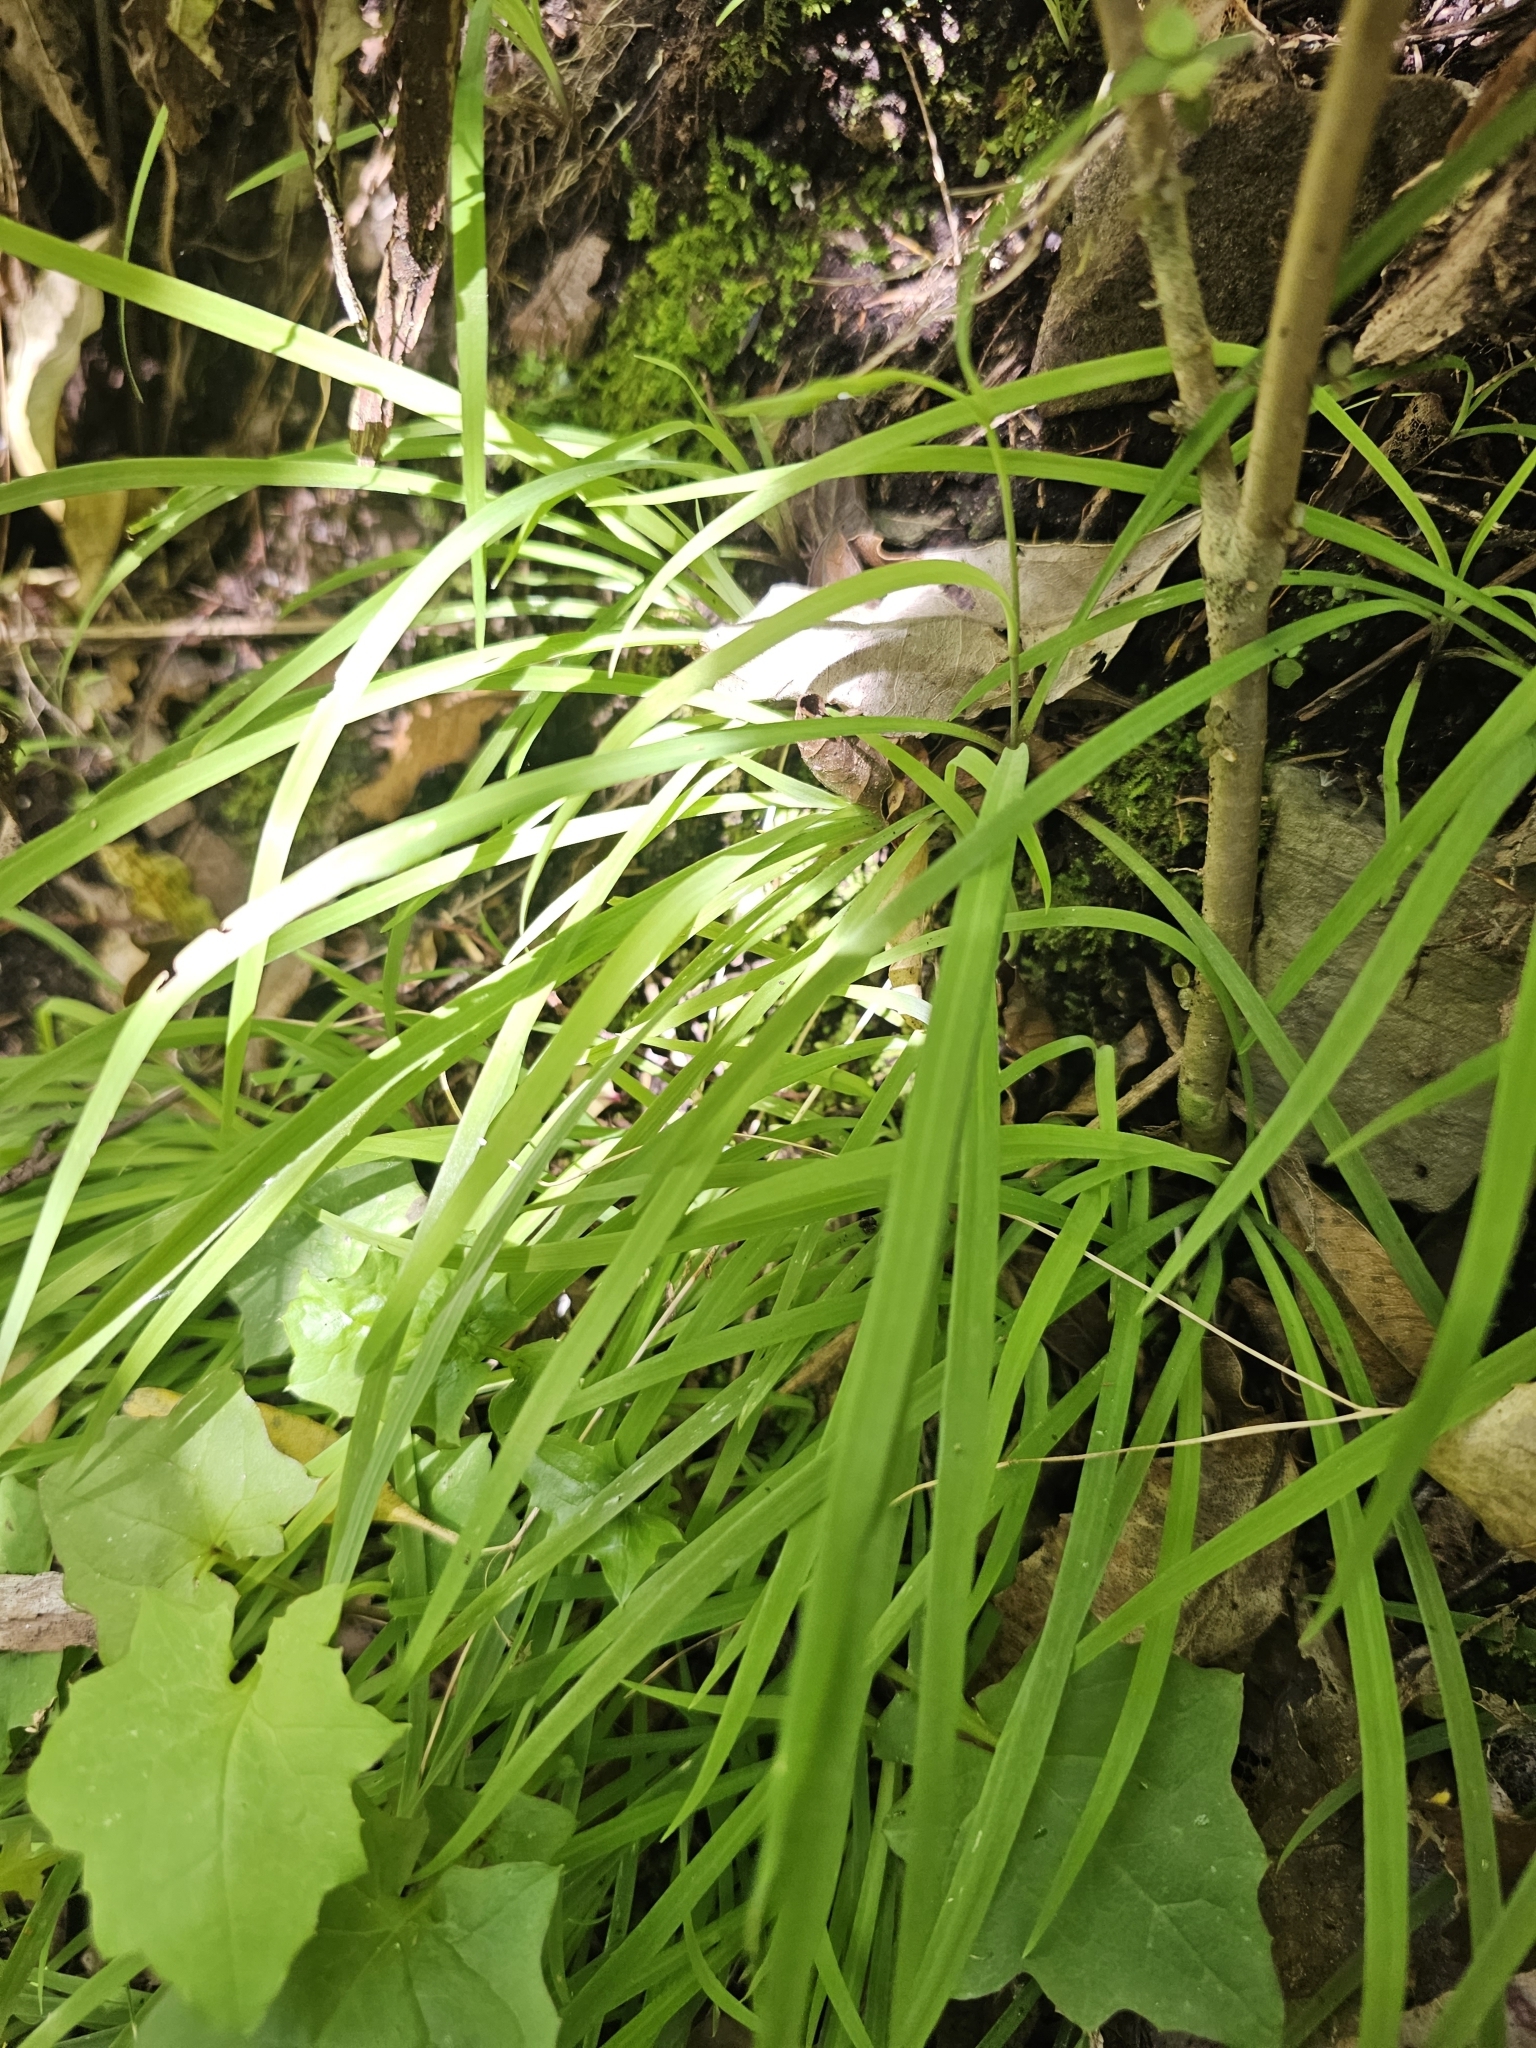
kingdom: Plantae
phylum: Tracheophyta
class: Liliopsida
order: Asparagales
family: Asparagaceae
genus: Arthropodium
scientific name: Arthropodium candidum
